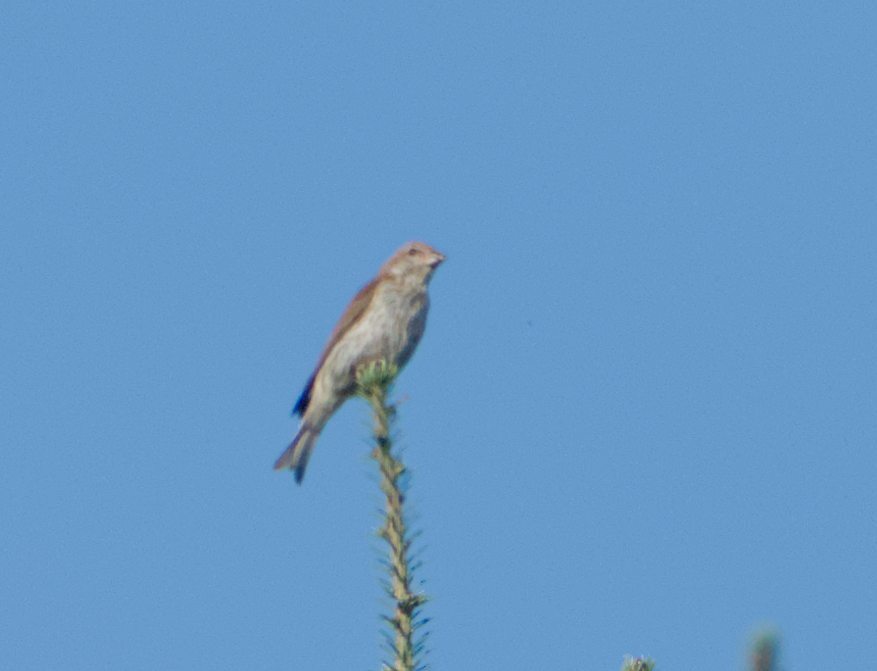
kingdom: Animalia
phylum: Chordata
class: Aves
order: Passeriformes
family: Fringillidae
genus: Haemorhous
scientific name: Haemorhous purpureus
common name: Purple finch
